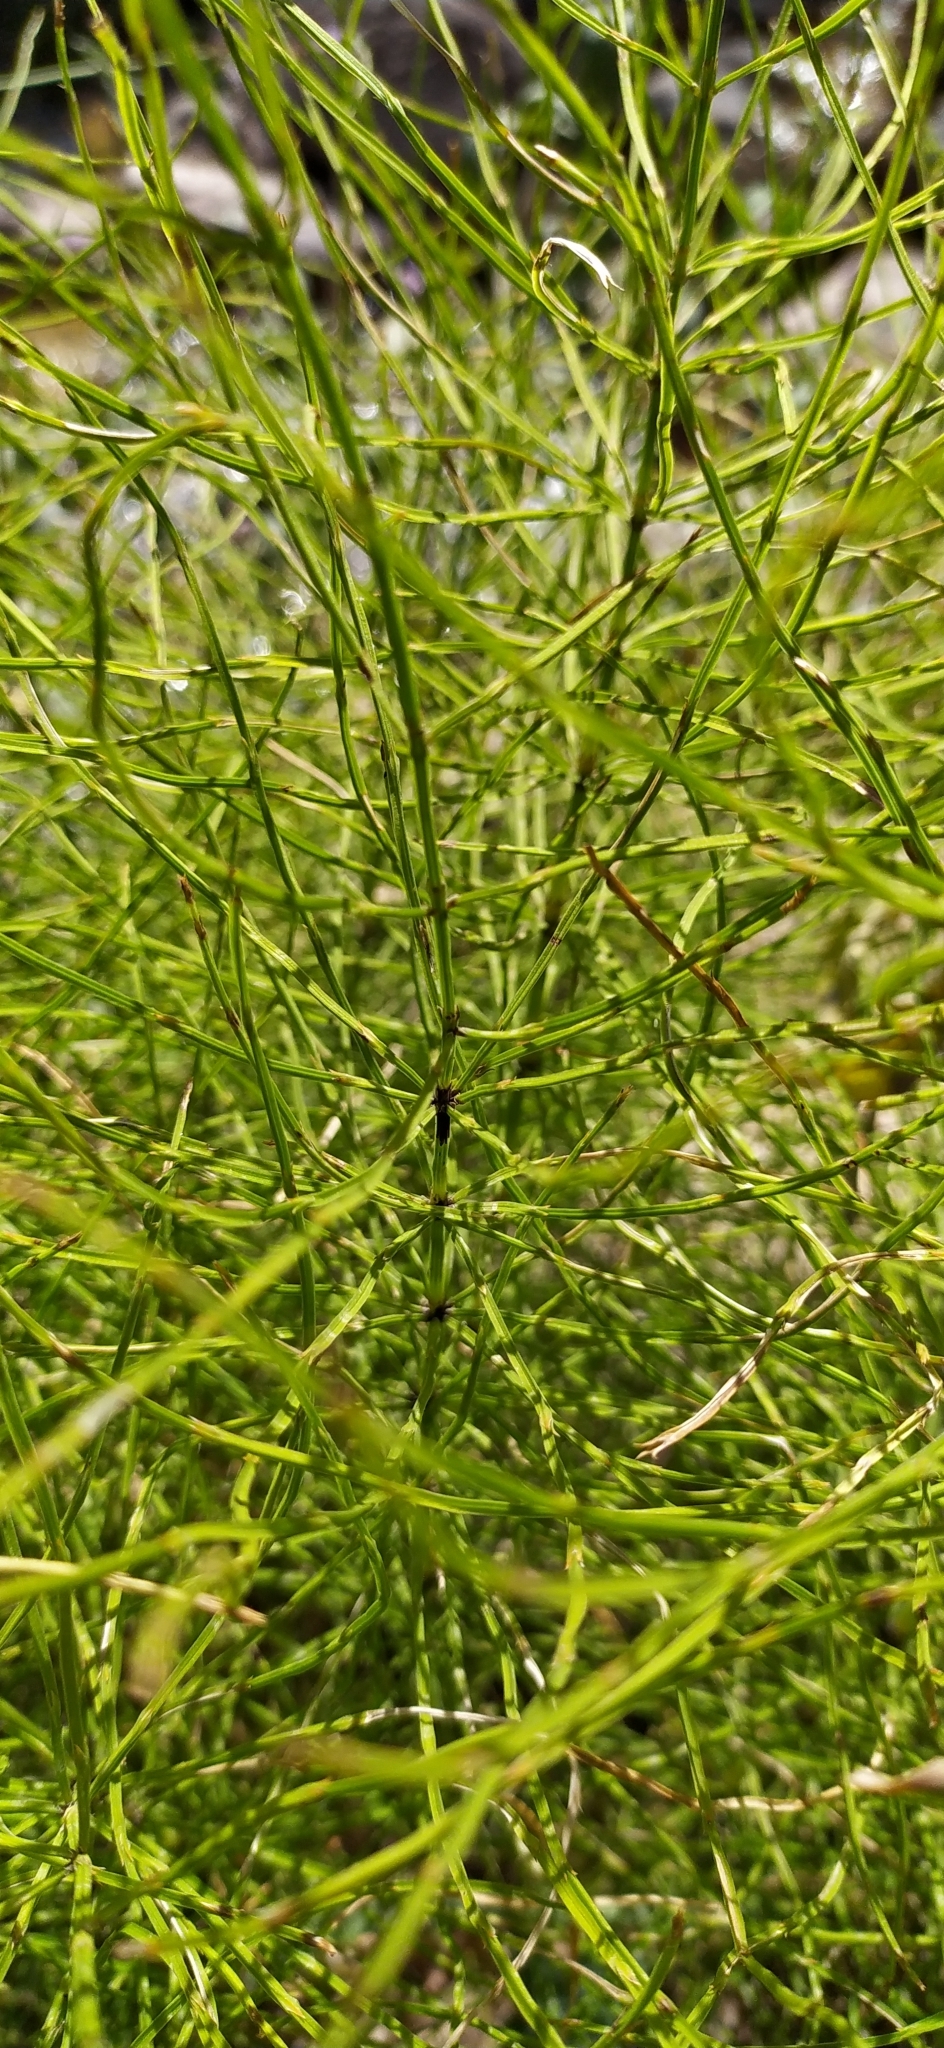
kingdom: Plantae
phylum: Tracheophyta
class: Polypodiopsida
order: Equisetales
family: Equisetaceae
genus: Equisetum
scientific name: Equisetum arvense
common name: Field horsetail
